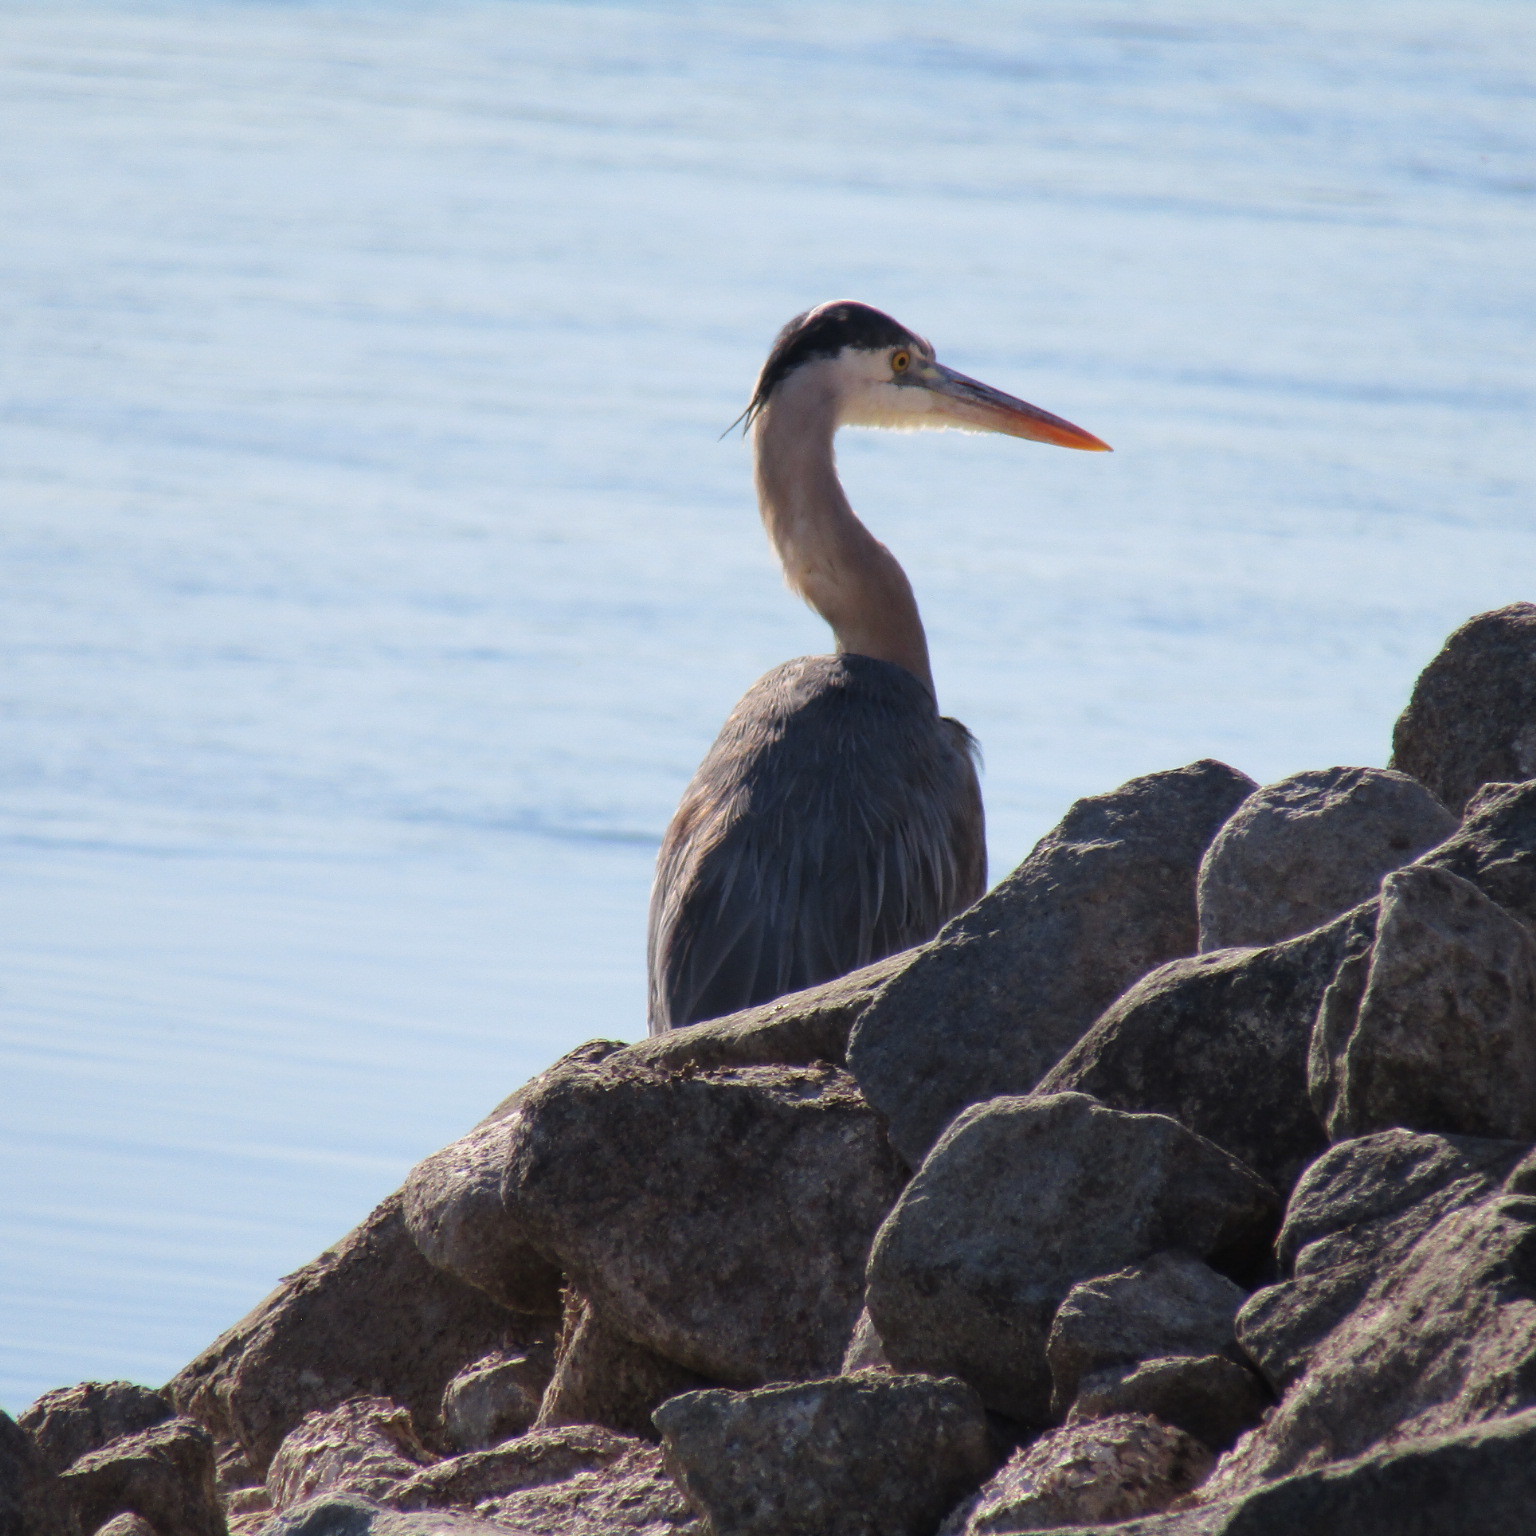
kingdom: Animalia
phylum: Chordata
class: Aves
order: Pelecaniformes
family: Ardeidae
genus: Ardea
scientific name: Ardea herodias
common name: Great blue heron
